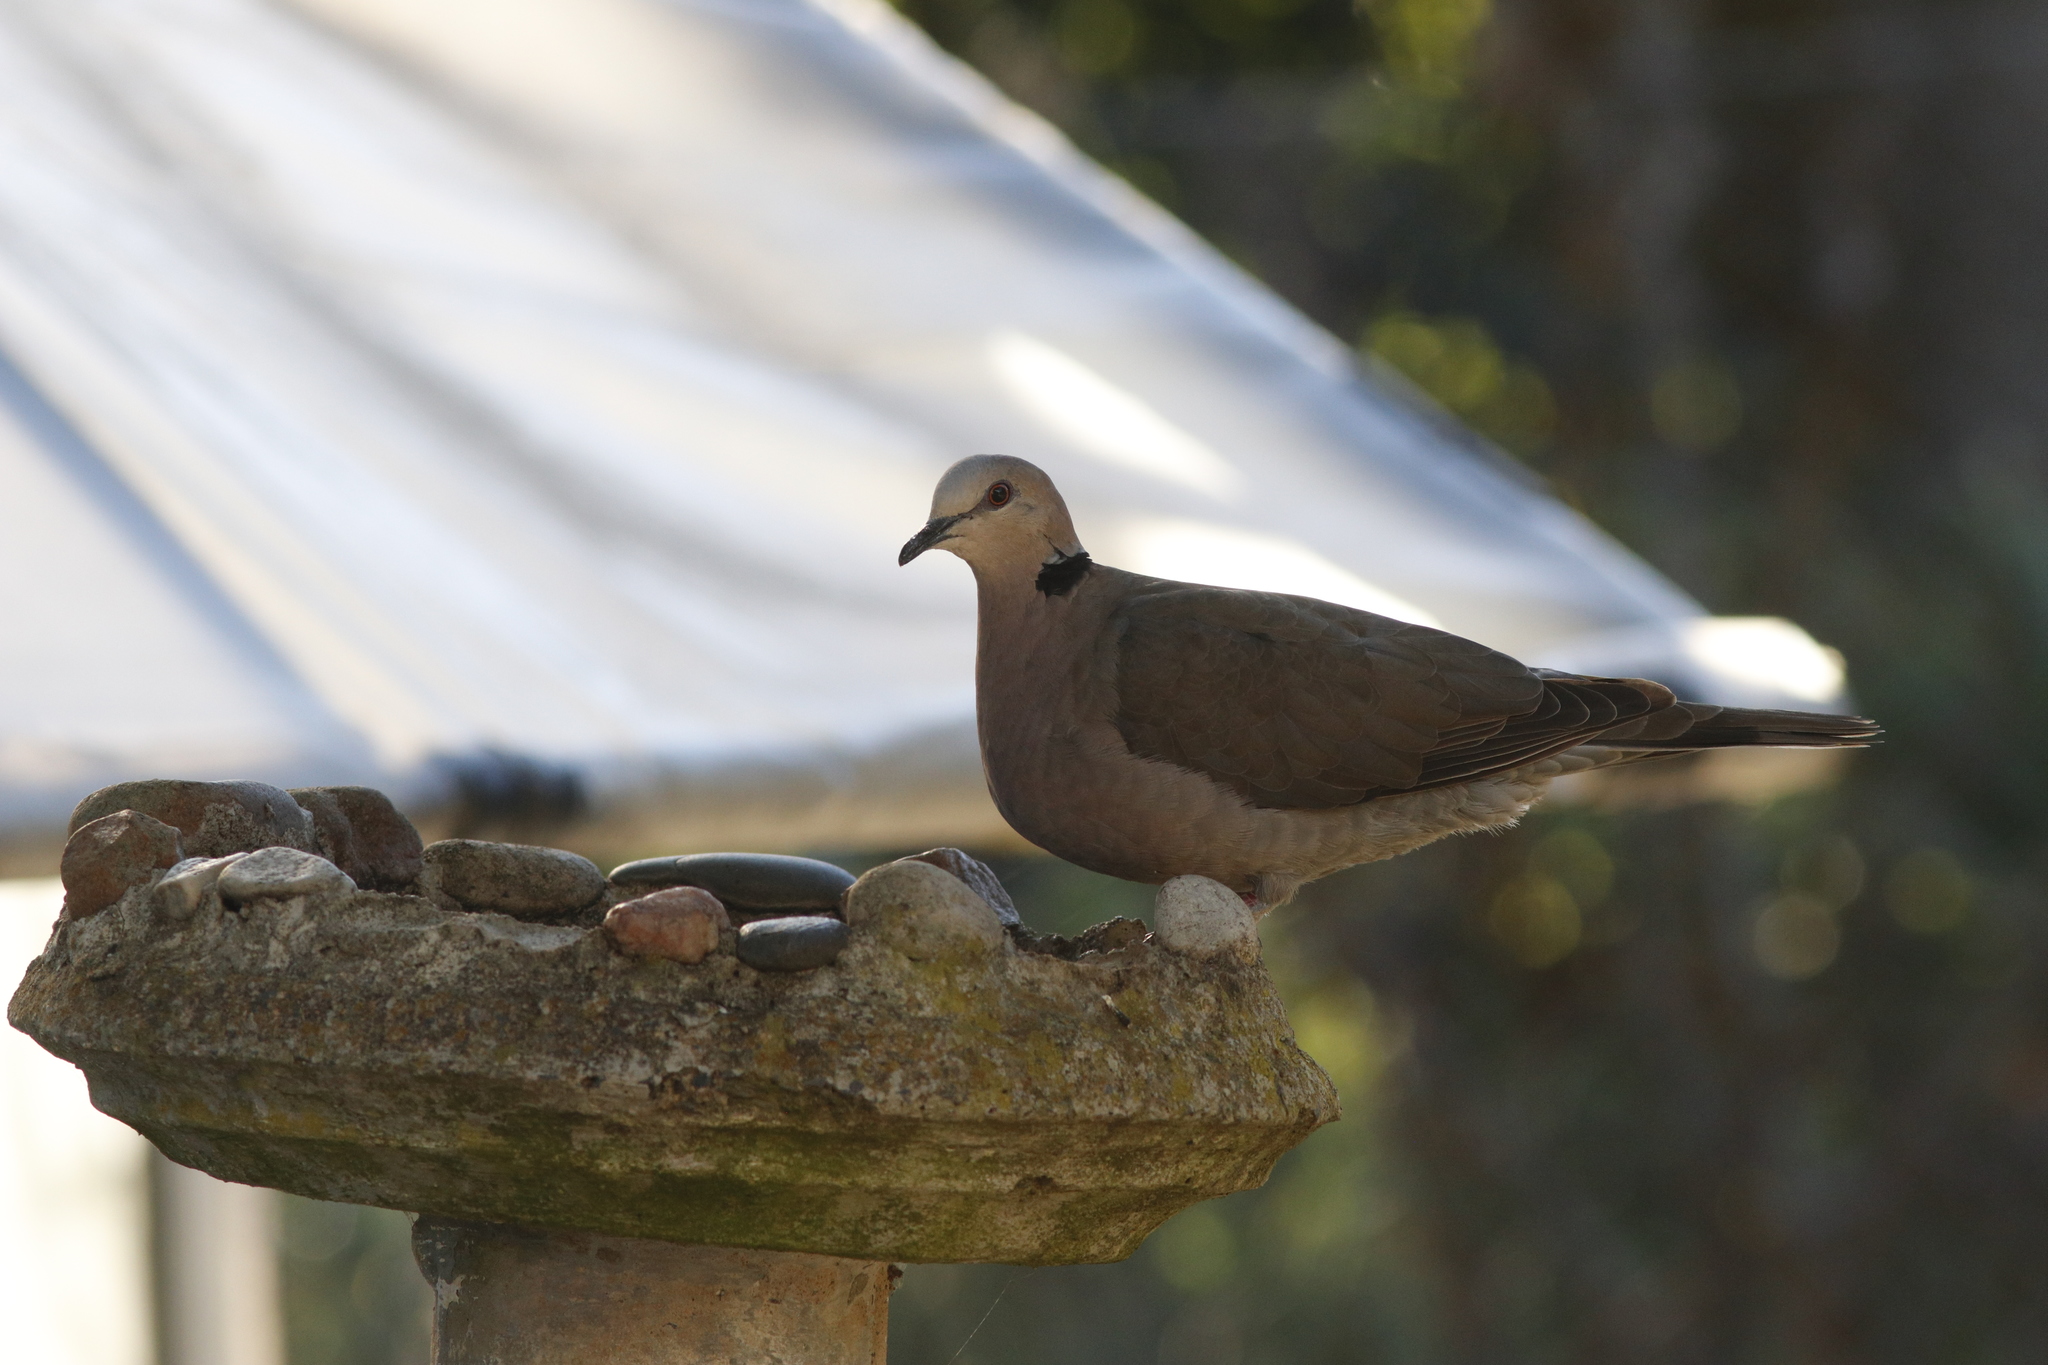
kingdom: Animalia
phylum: Chordata
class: Aves
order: Columbiformes
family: Columbidae
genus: Streptopelia
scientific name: Streptopelia semitorquata
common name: Red-eyed dove
